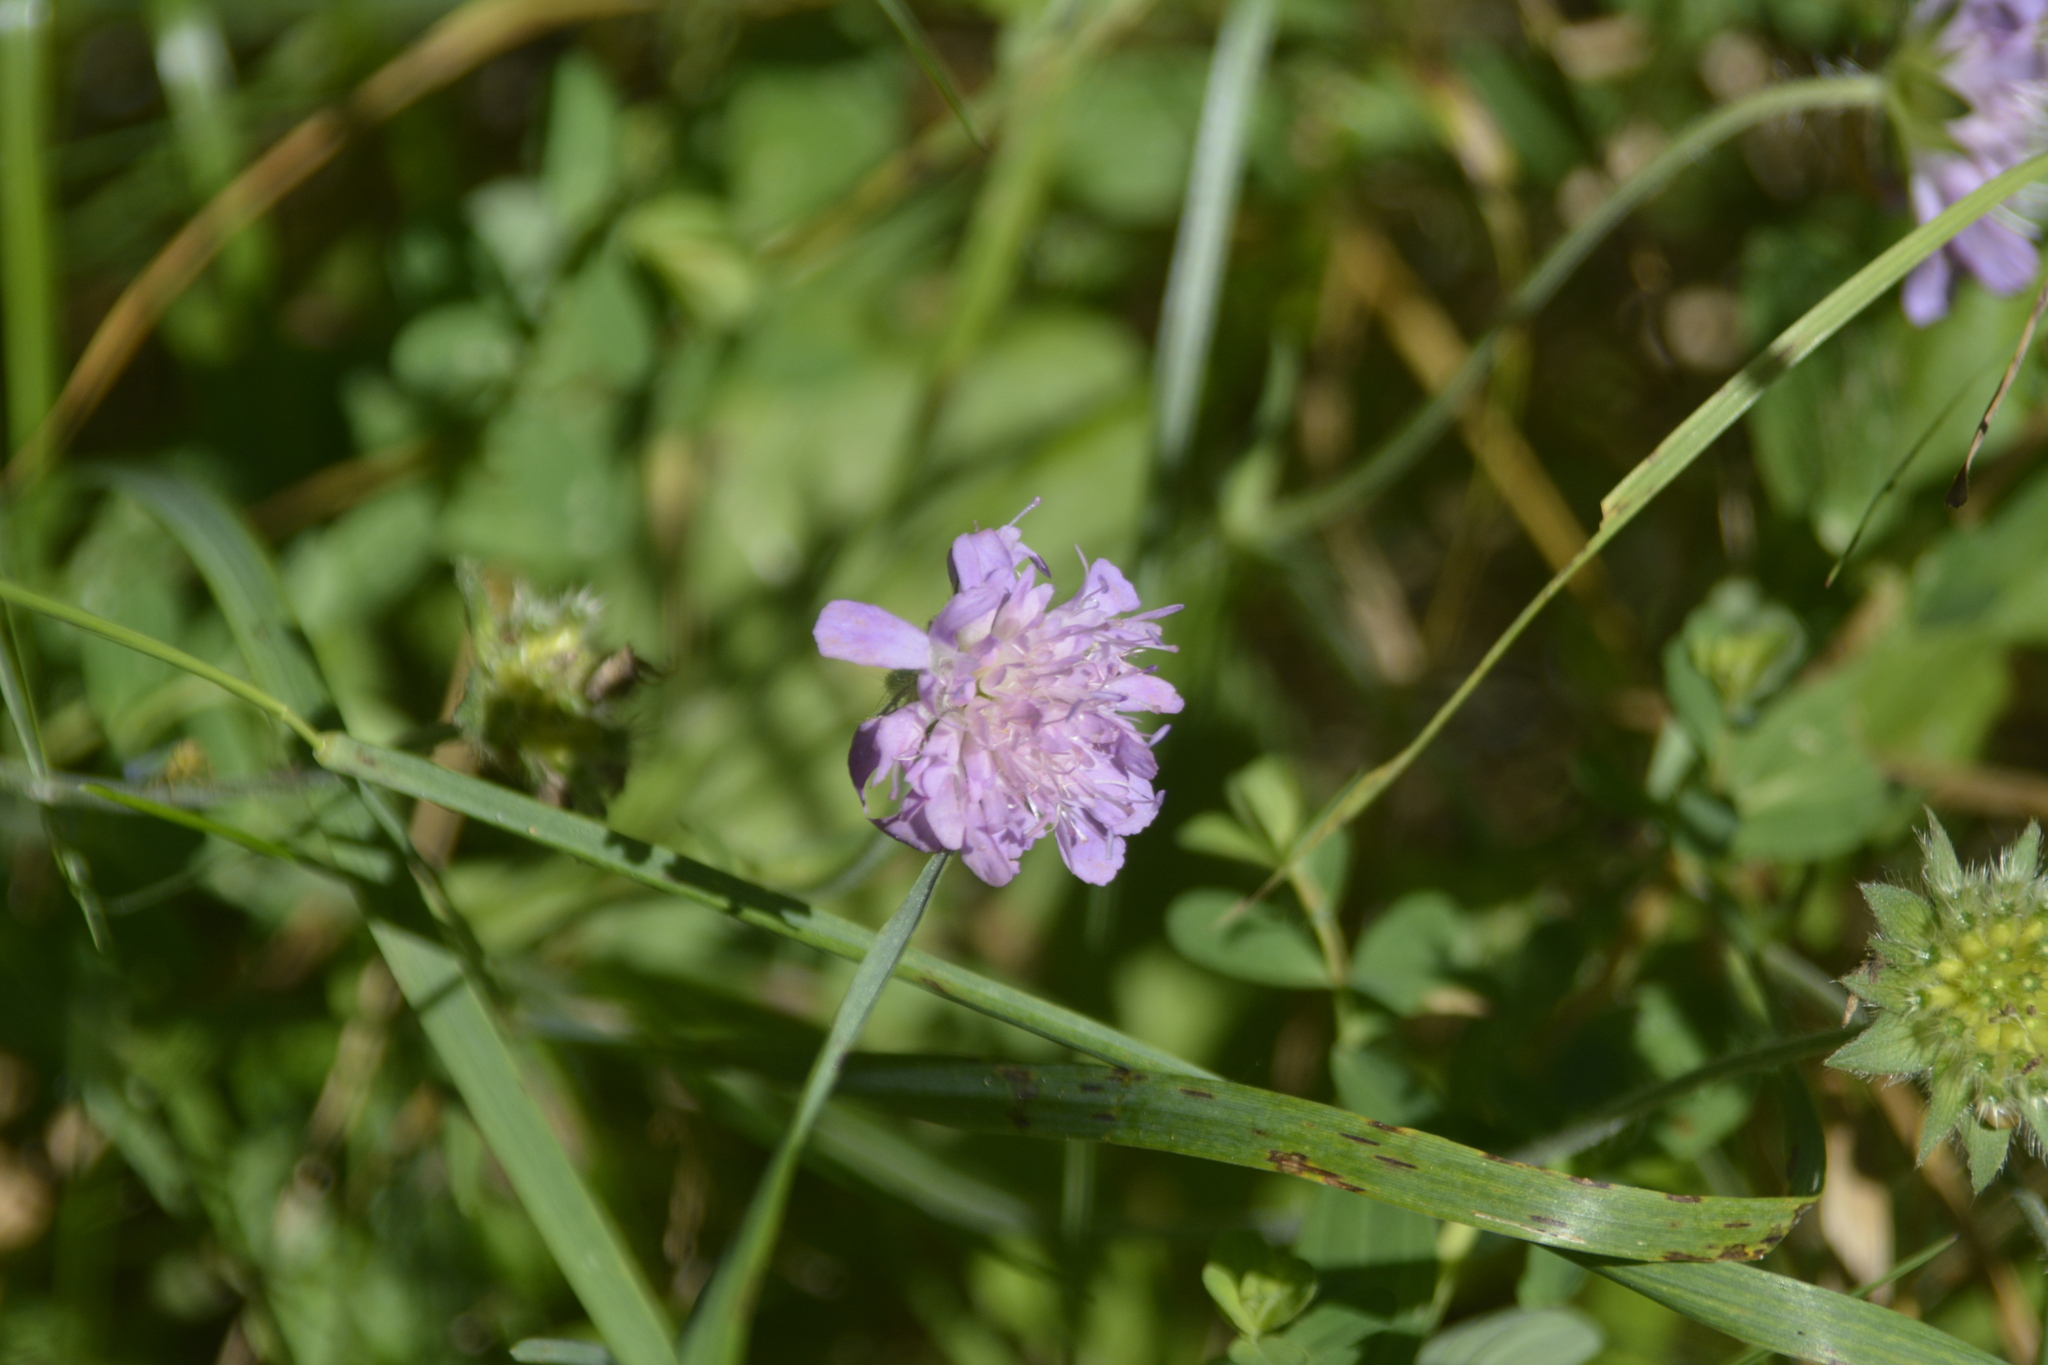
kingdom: Plantae
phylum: Tracheophyta
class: Magnoliopsida
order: Dipsacales
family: Caprifoliaceae
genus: Knautia
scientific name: Knautia arvensis
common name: Field scabiosa
